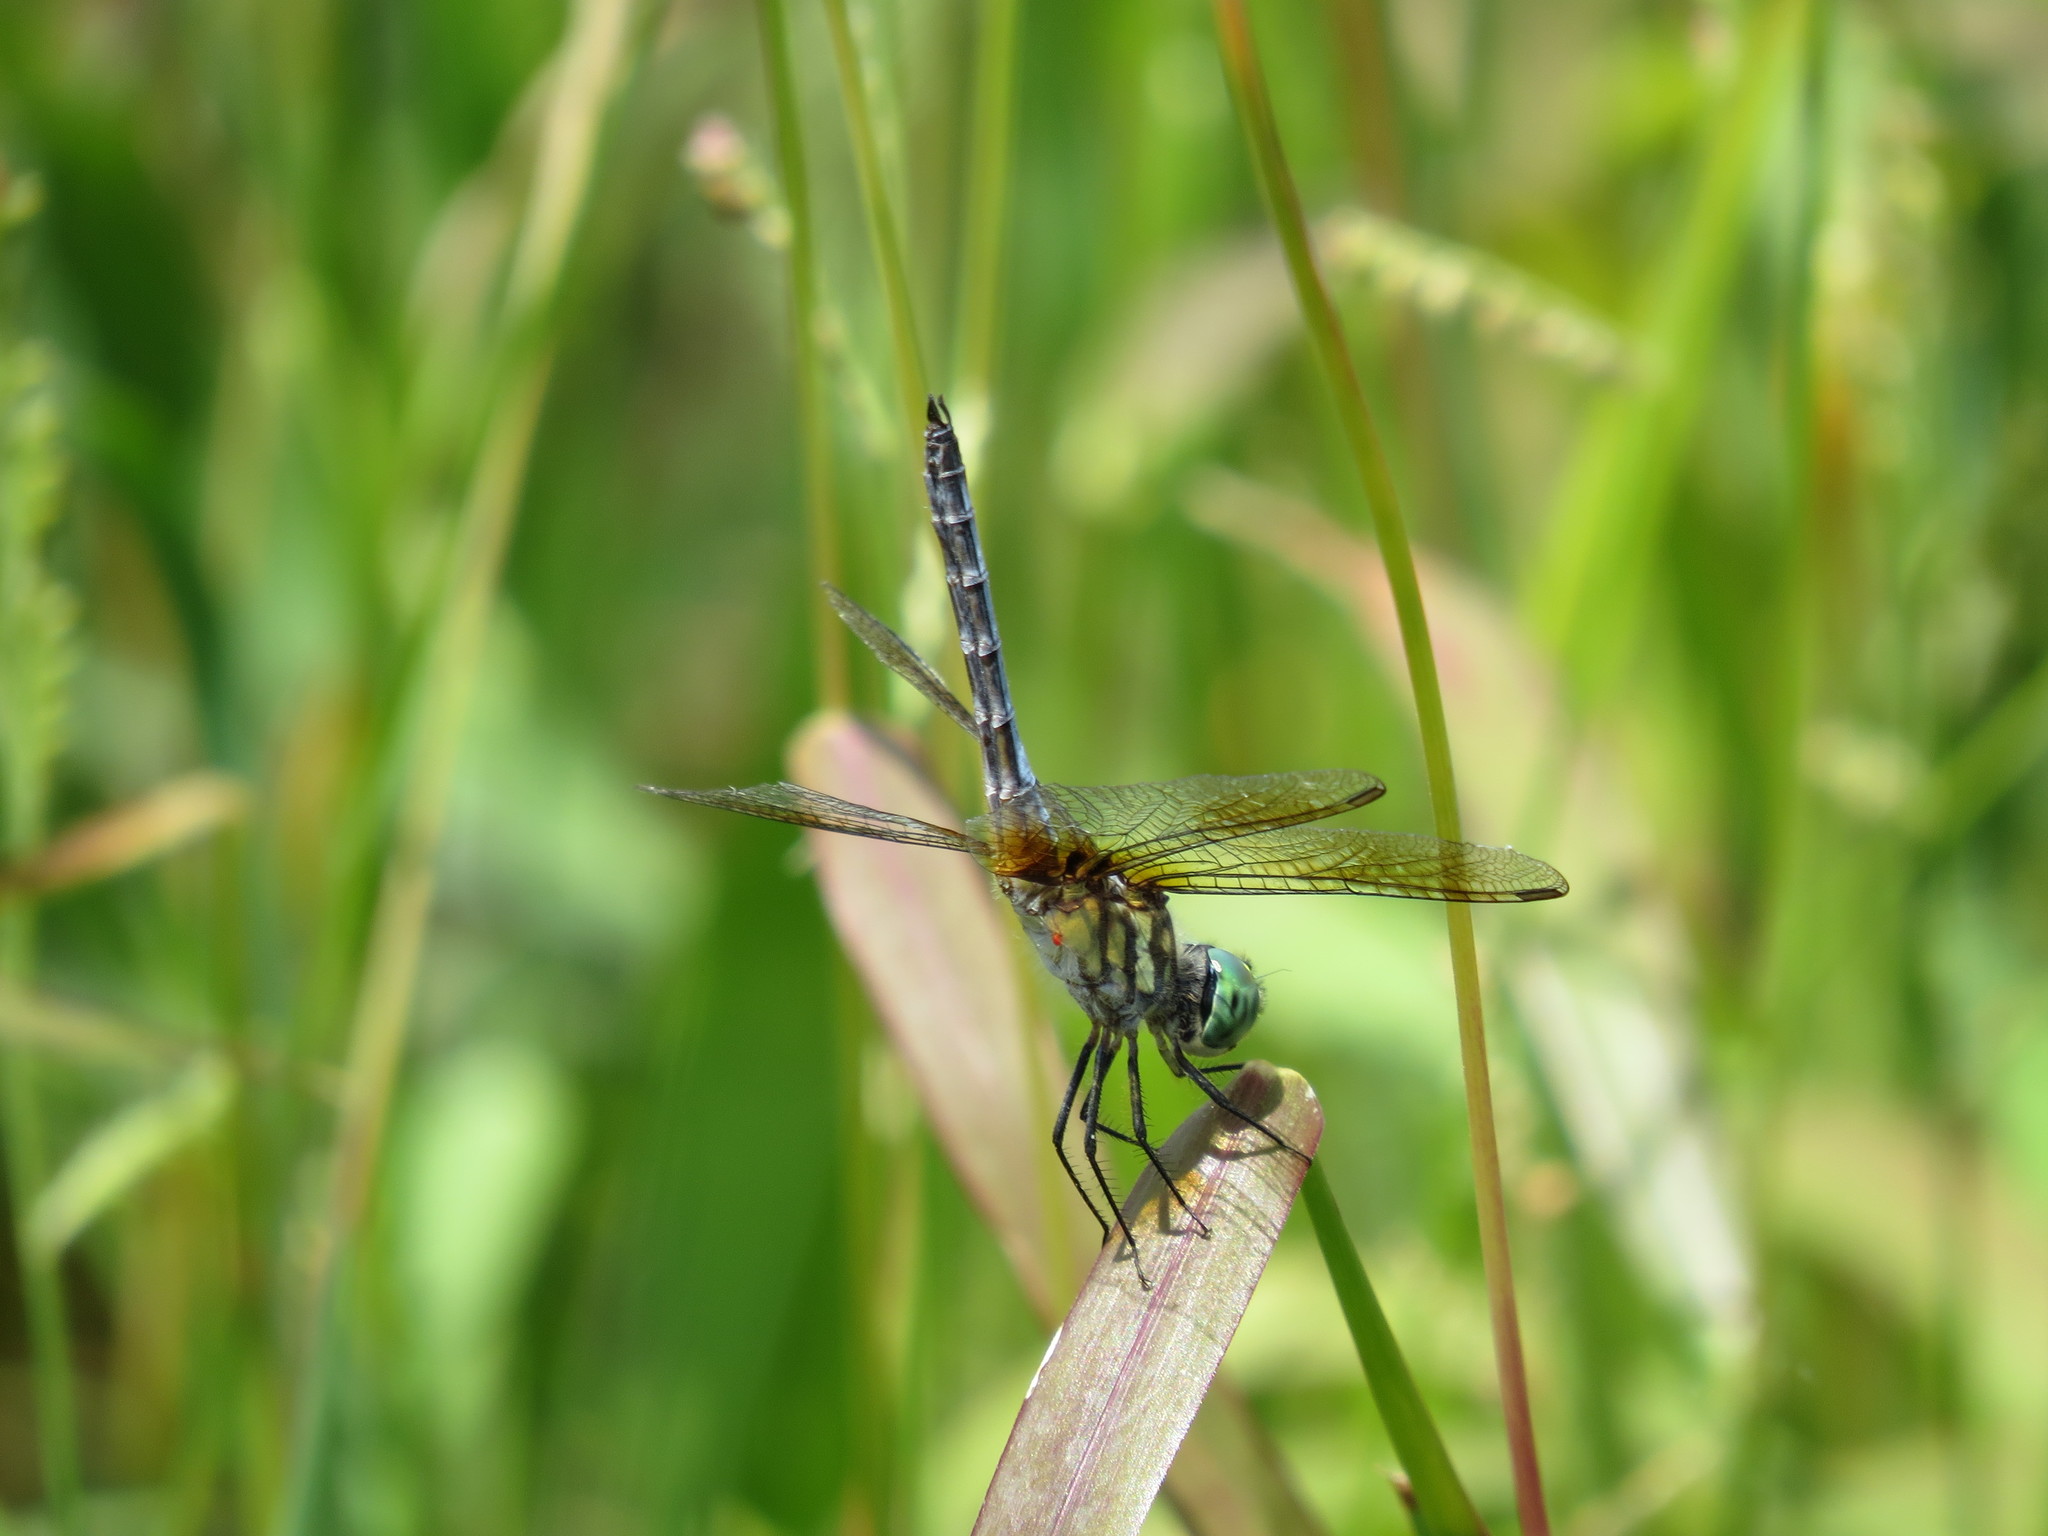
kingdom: Animalia
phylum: Arthropoda
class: Insecta
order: Odonata
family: Libellulidae
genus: Pachydiplax
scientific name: Pachydiplax longipennis
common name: Blue dasher
